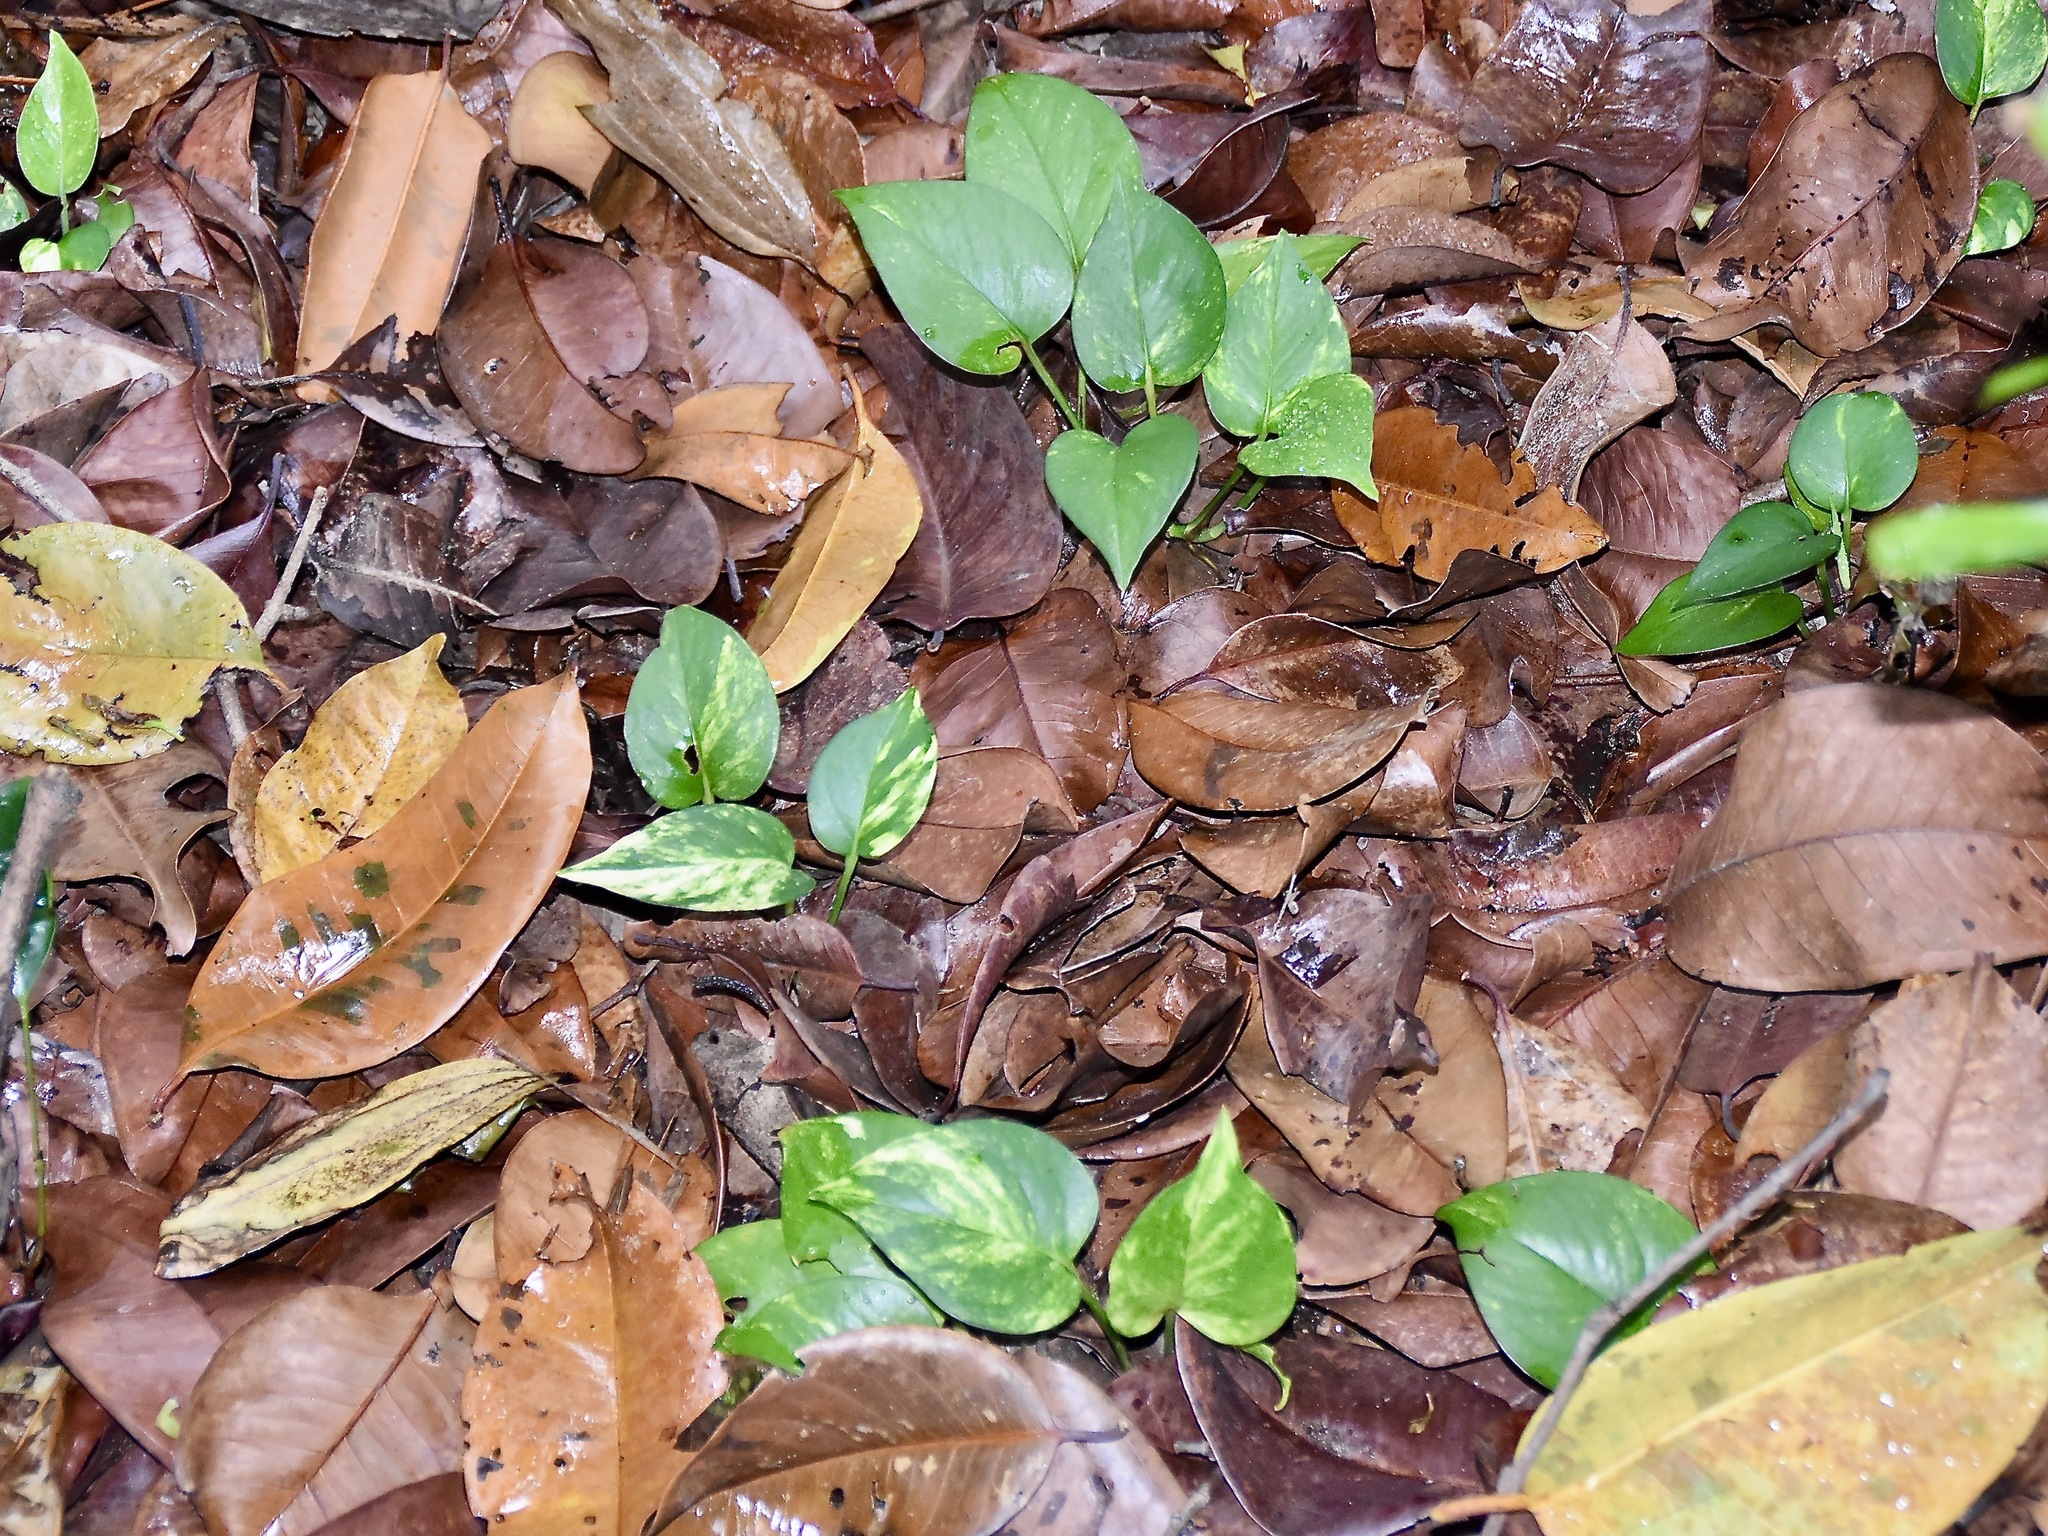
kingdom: Plantae
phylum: Tracheophyta
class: Liliopsida
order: Alismatales
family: Araceae
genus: Epipremnum
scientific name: Epipremnum aureum
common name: Golden hunter's-robe
